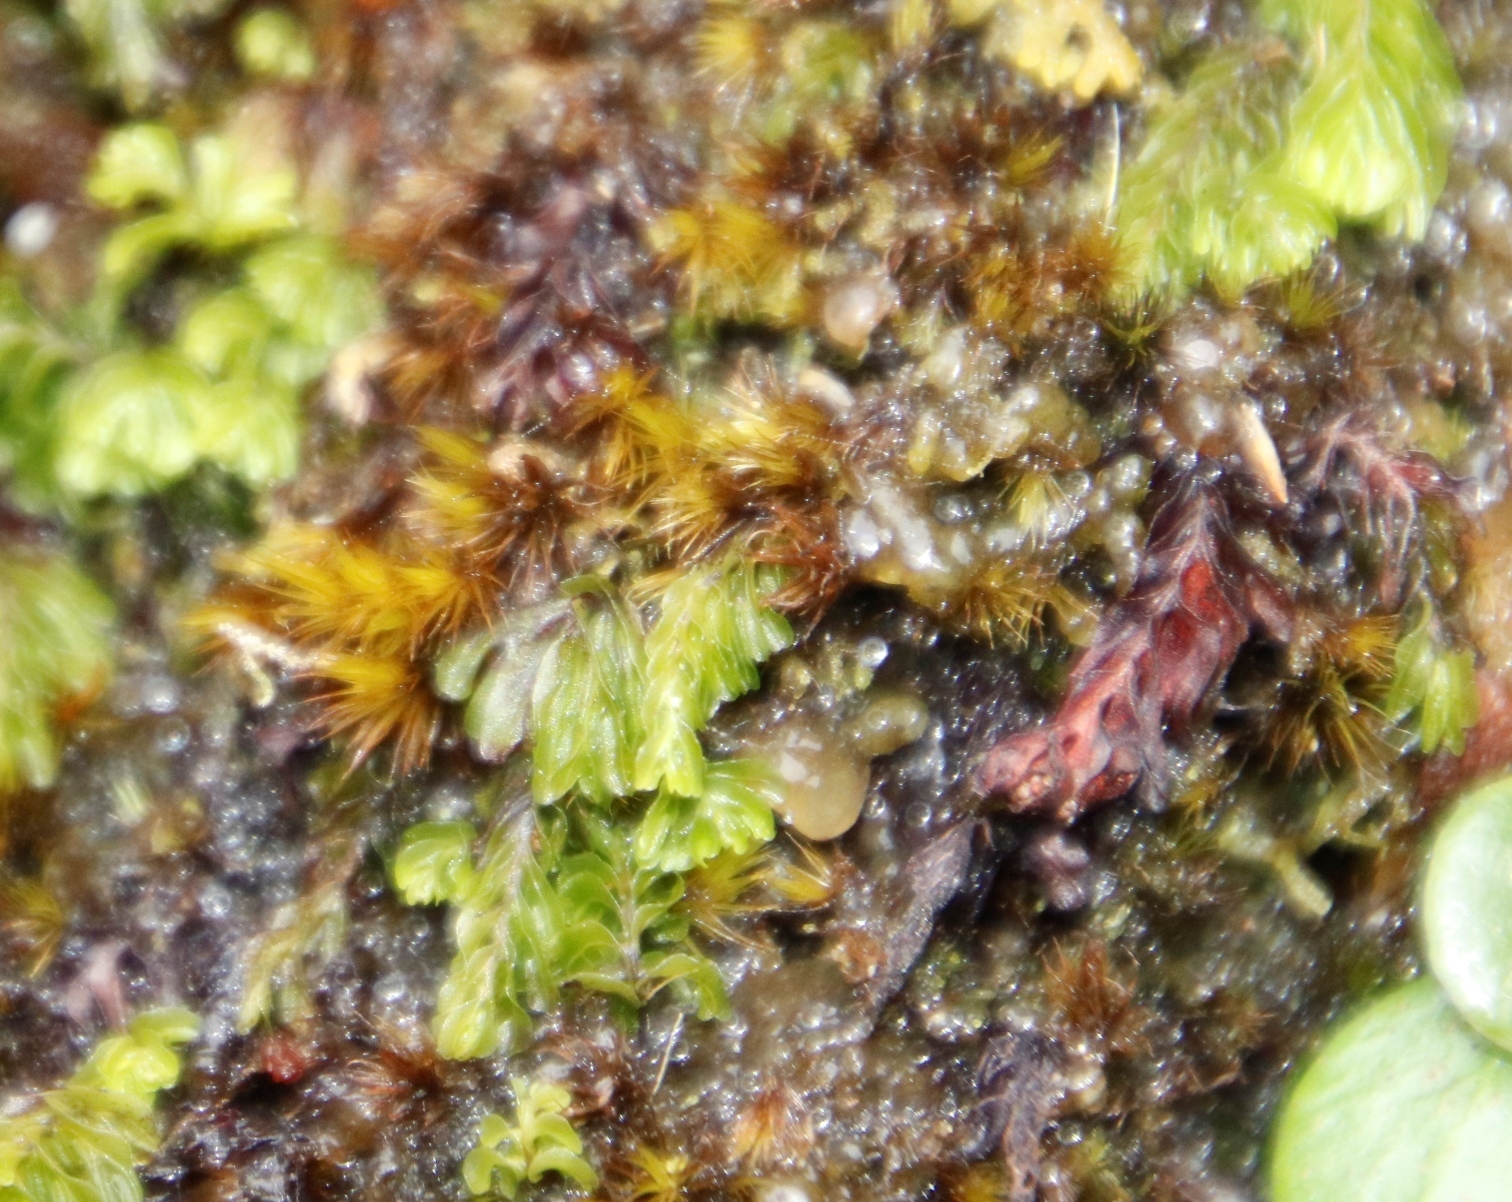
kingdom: Plantae
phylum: Tracheophyta
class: Polypodiopsida
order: Hymenophyllales
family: Hymenophyllaceae
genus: Hymenophyllum
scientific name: Hymenophyllum capense
